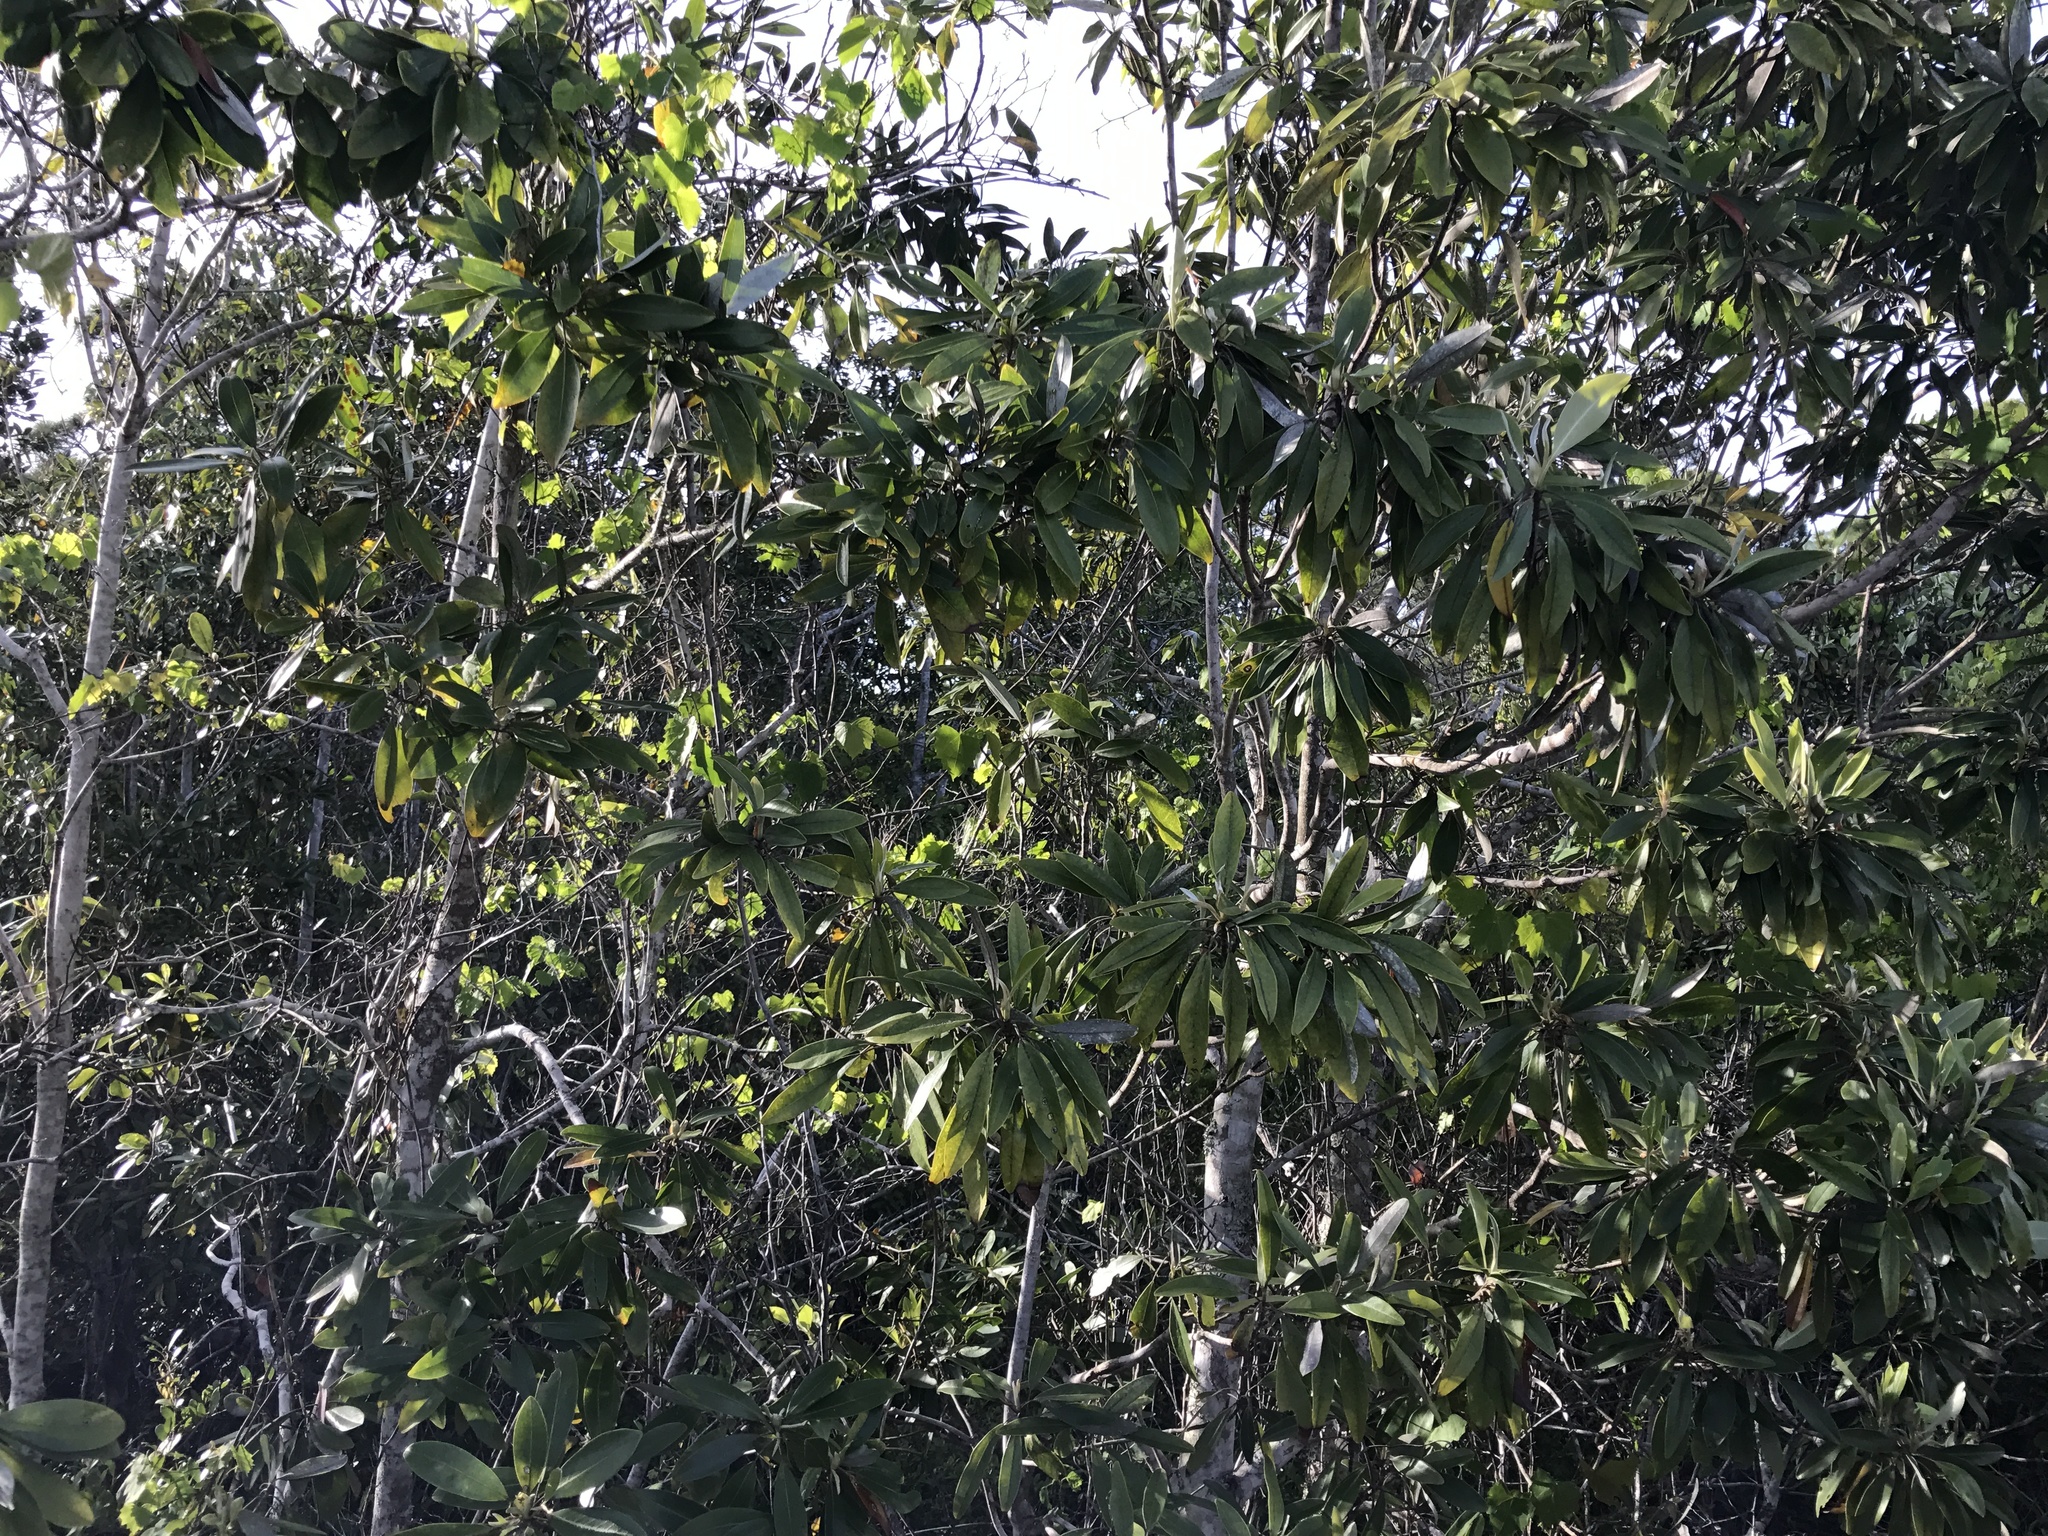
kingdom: Plantae
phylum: Tracheophyta
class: Magnoliopsida
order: Magnoliales
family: Magnoliaceae
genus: Magnolia
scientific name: Magnolia virginiana
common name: Swamp bay
